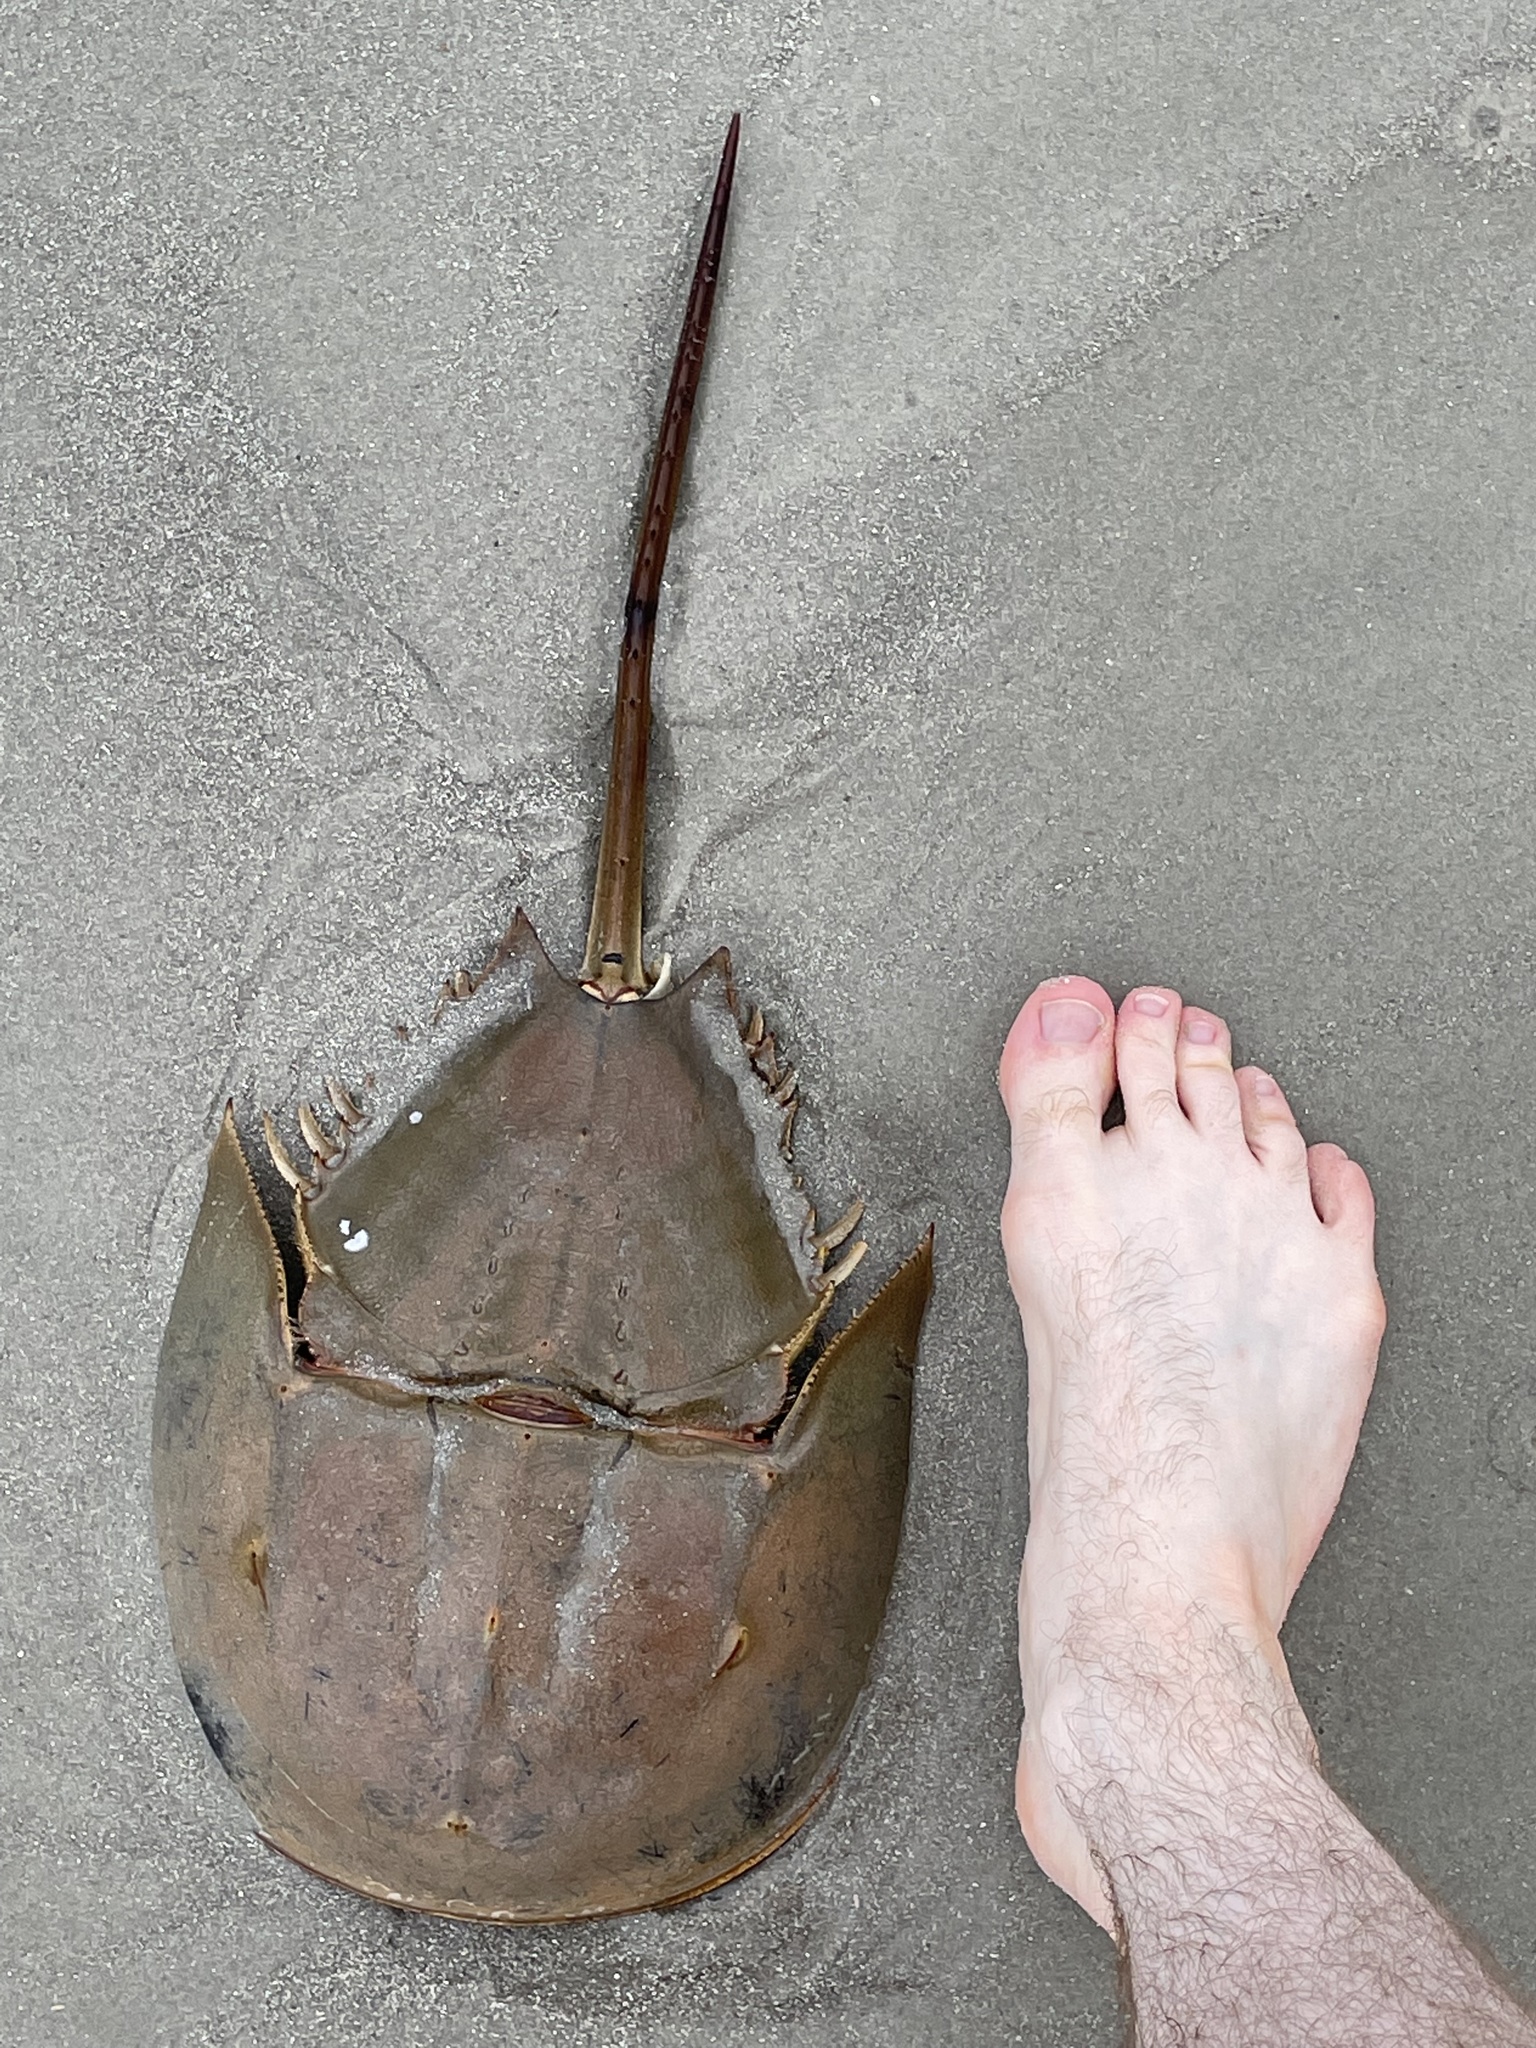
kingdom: Animalia
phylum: Arthropoda
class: Merostomata
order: Xiphosurida
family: Limulidae
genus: Limulus
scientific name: Limulus polyphemus
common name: Horseshoe crab
